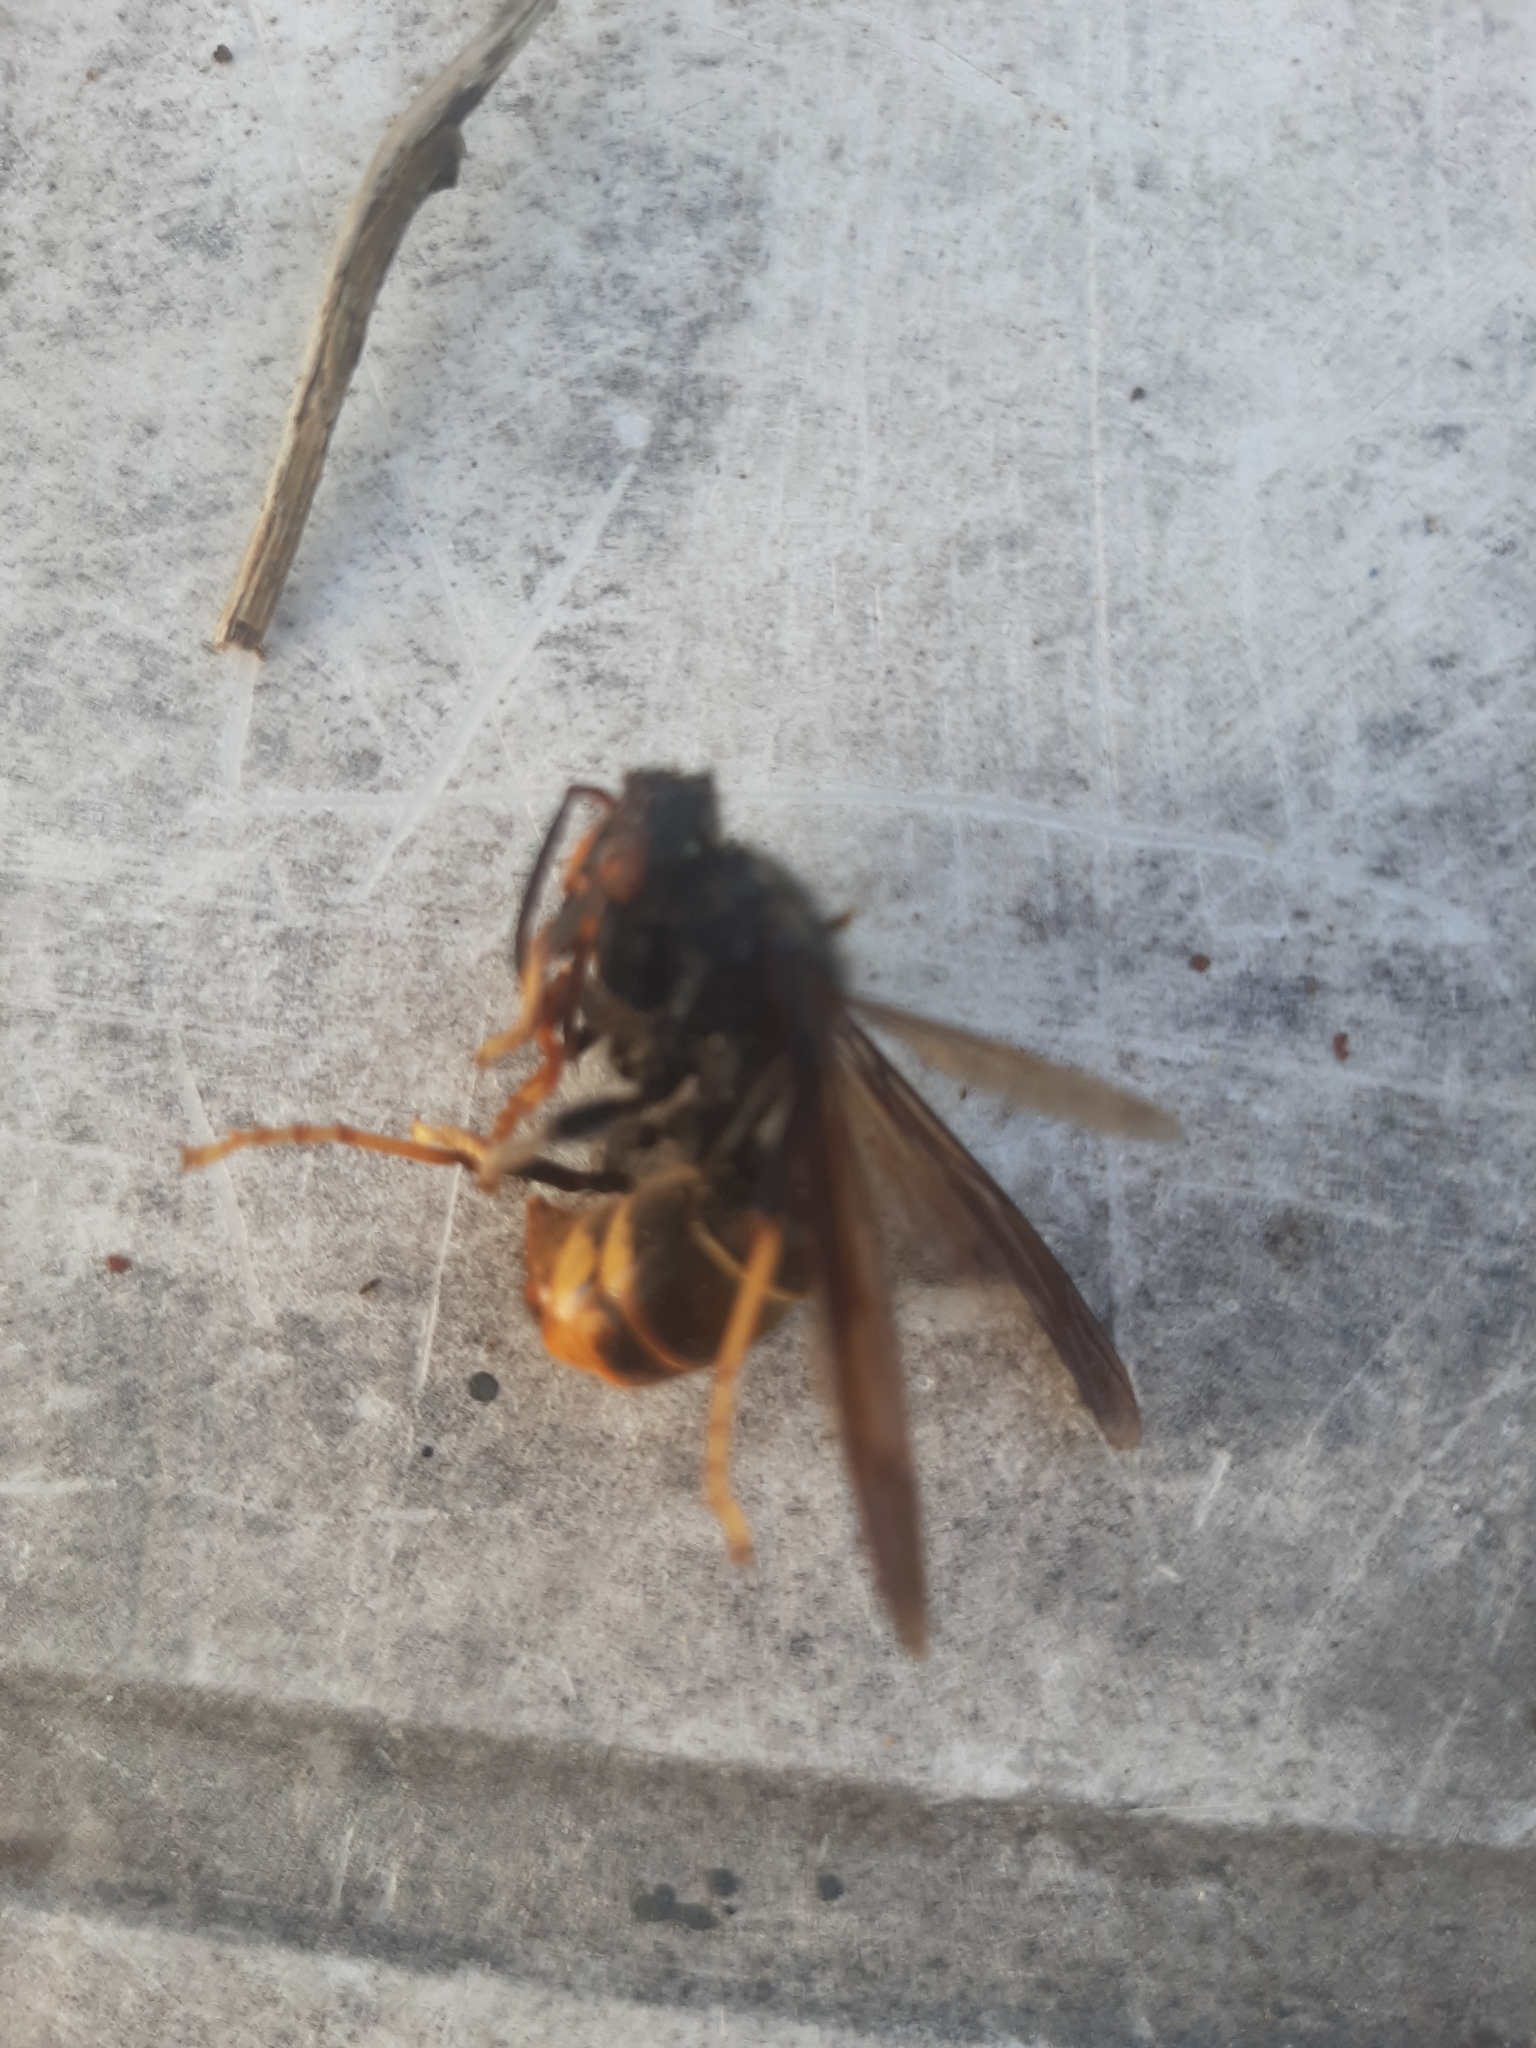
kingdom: Animalia
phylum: Arthropoda
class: Insecta
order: Hymenoptera
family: Vespidae
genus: Vespa
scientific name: Vespa velutina
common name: Asian hornet
